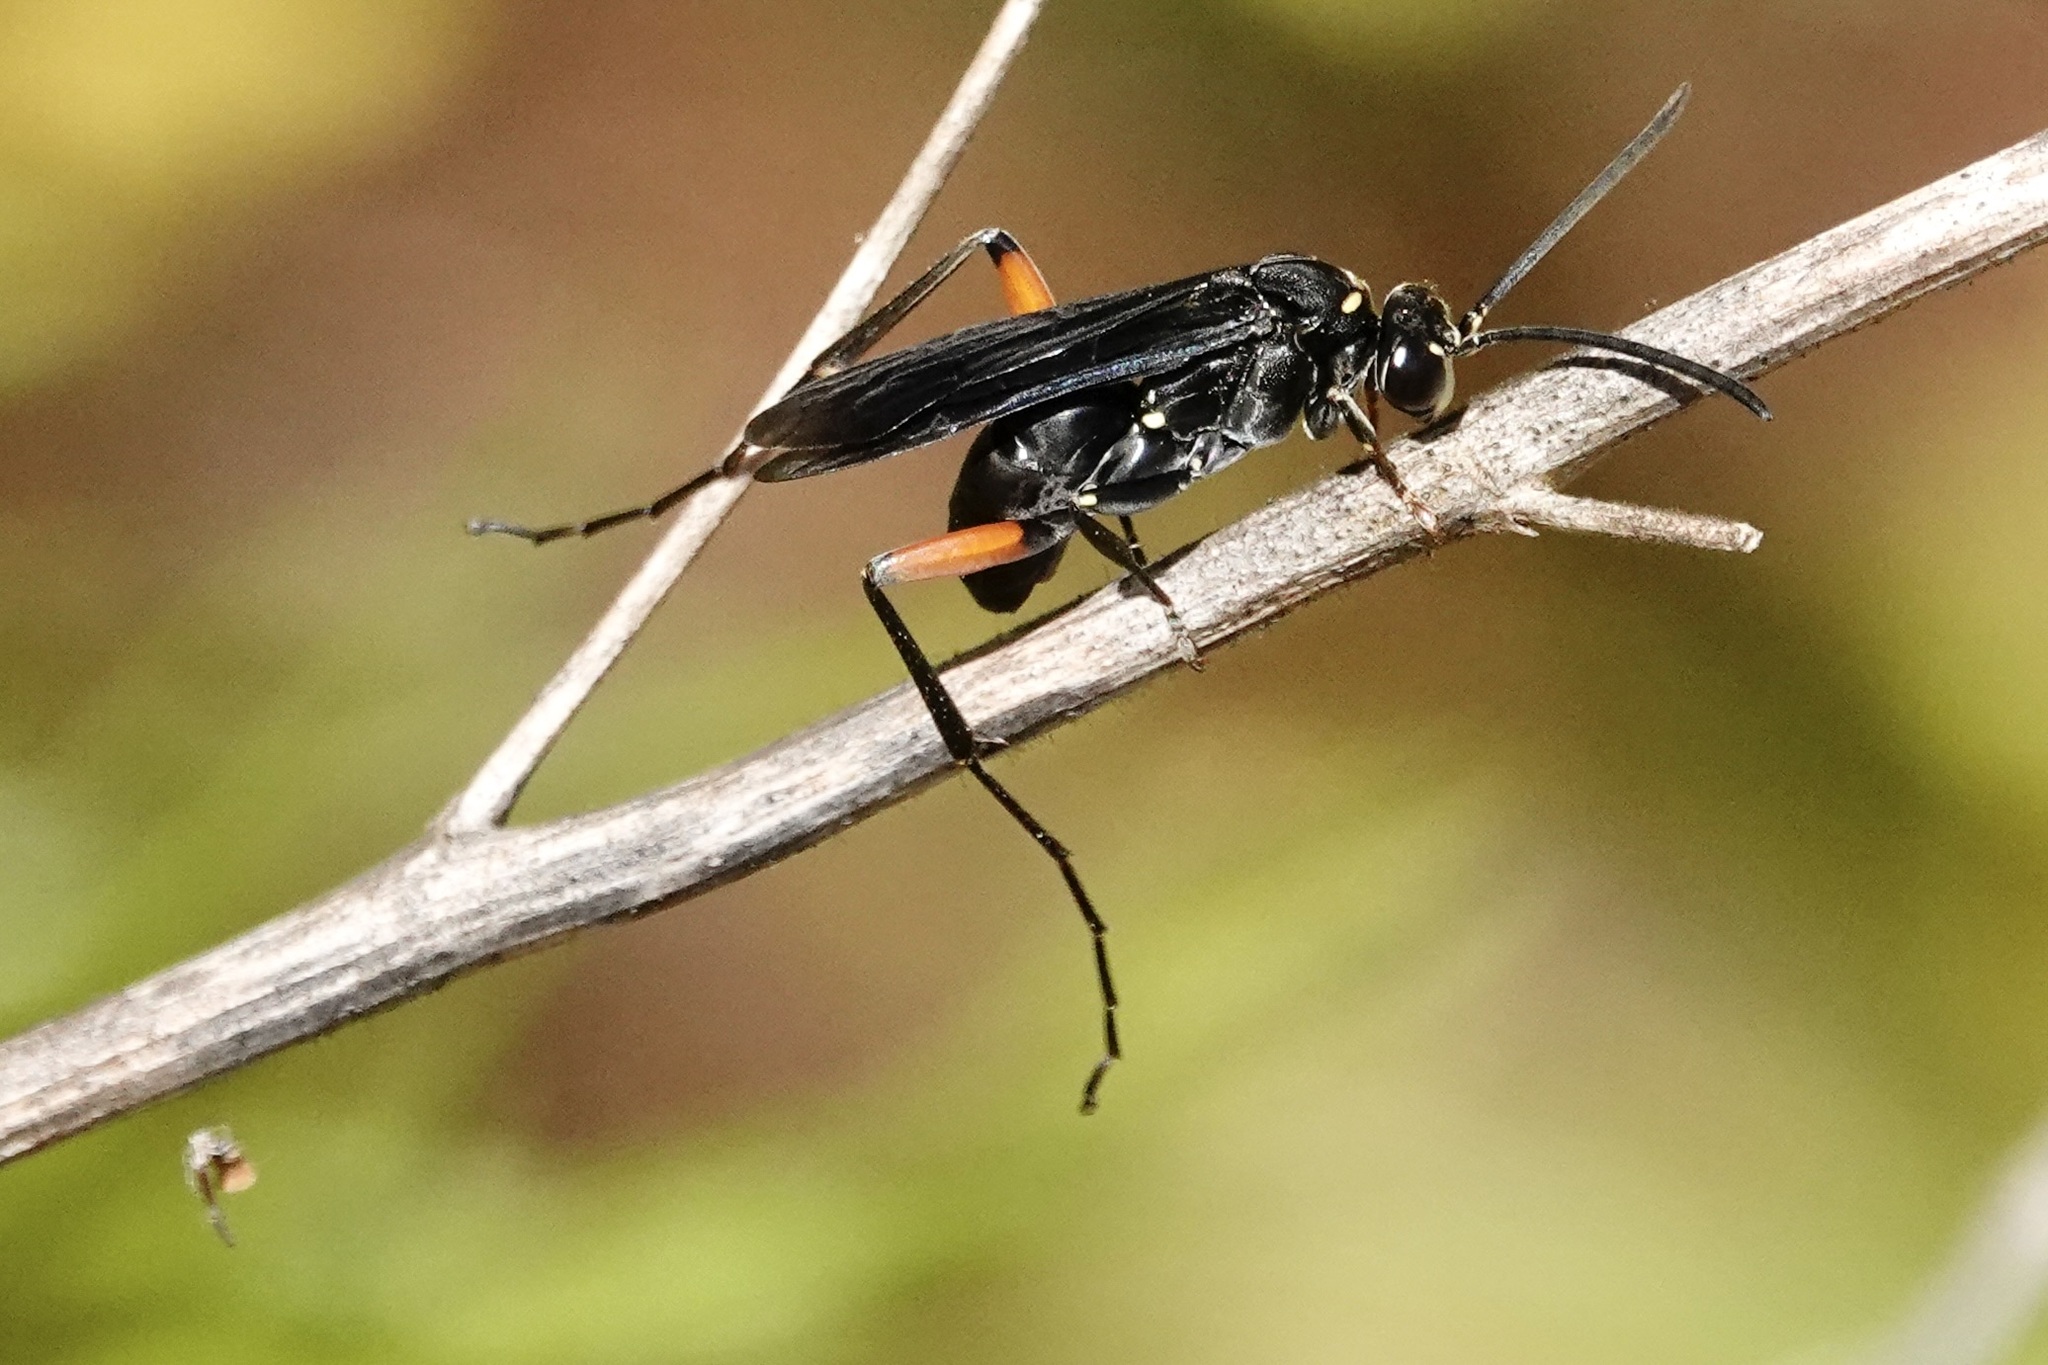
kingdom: Animalia
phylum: Arthropoda
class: Insecta
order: Hymenoptera
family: Pompilidae
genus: Ceropales
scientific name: Ceropales bipunctata
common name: Two-speckled cuckoo spider wasp
